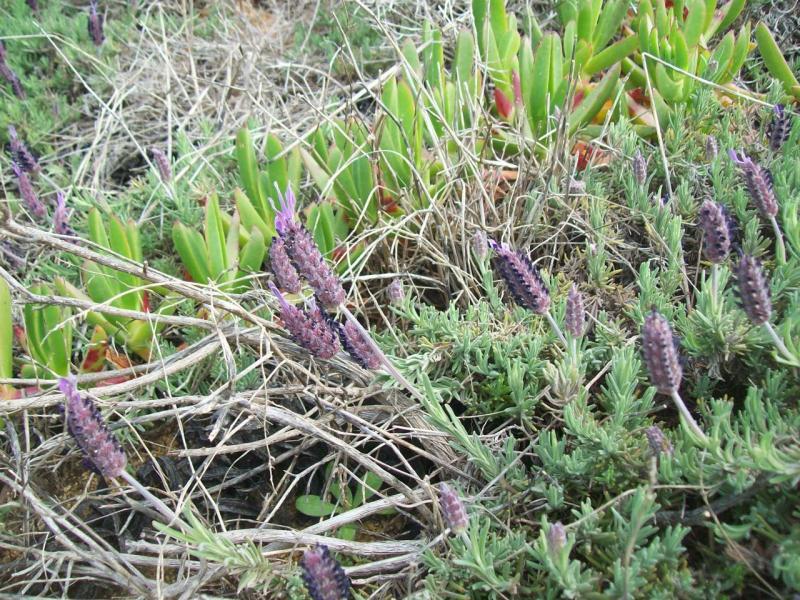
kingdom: Plantae
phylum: Tracheophyta
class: Magnoliopsida
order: Lamiales
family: Lamiaceae
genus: Lavandula
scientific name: Lavandula stoechas
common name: French lavender
